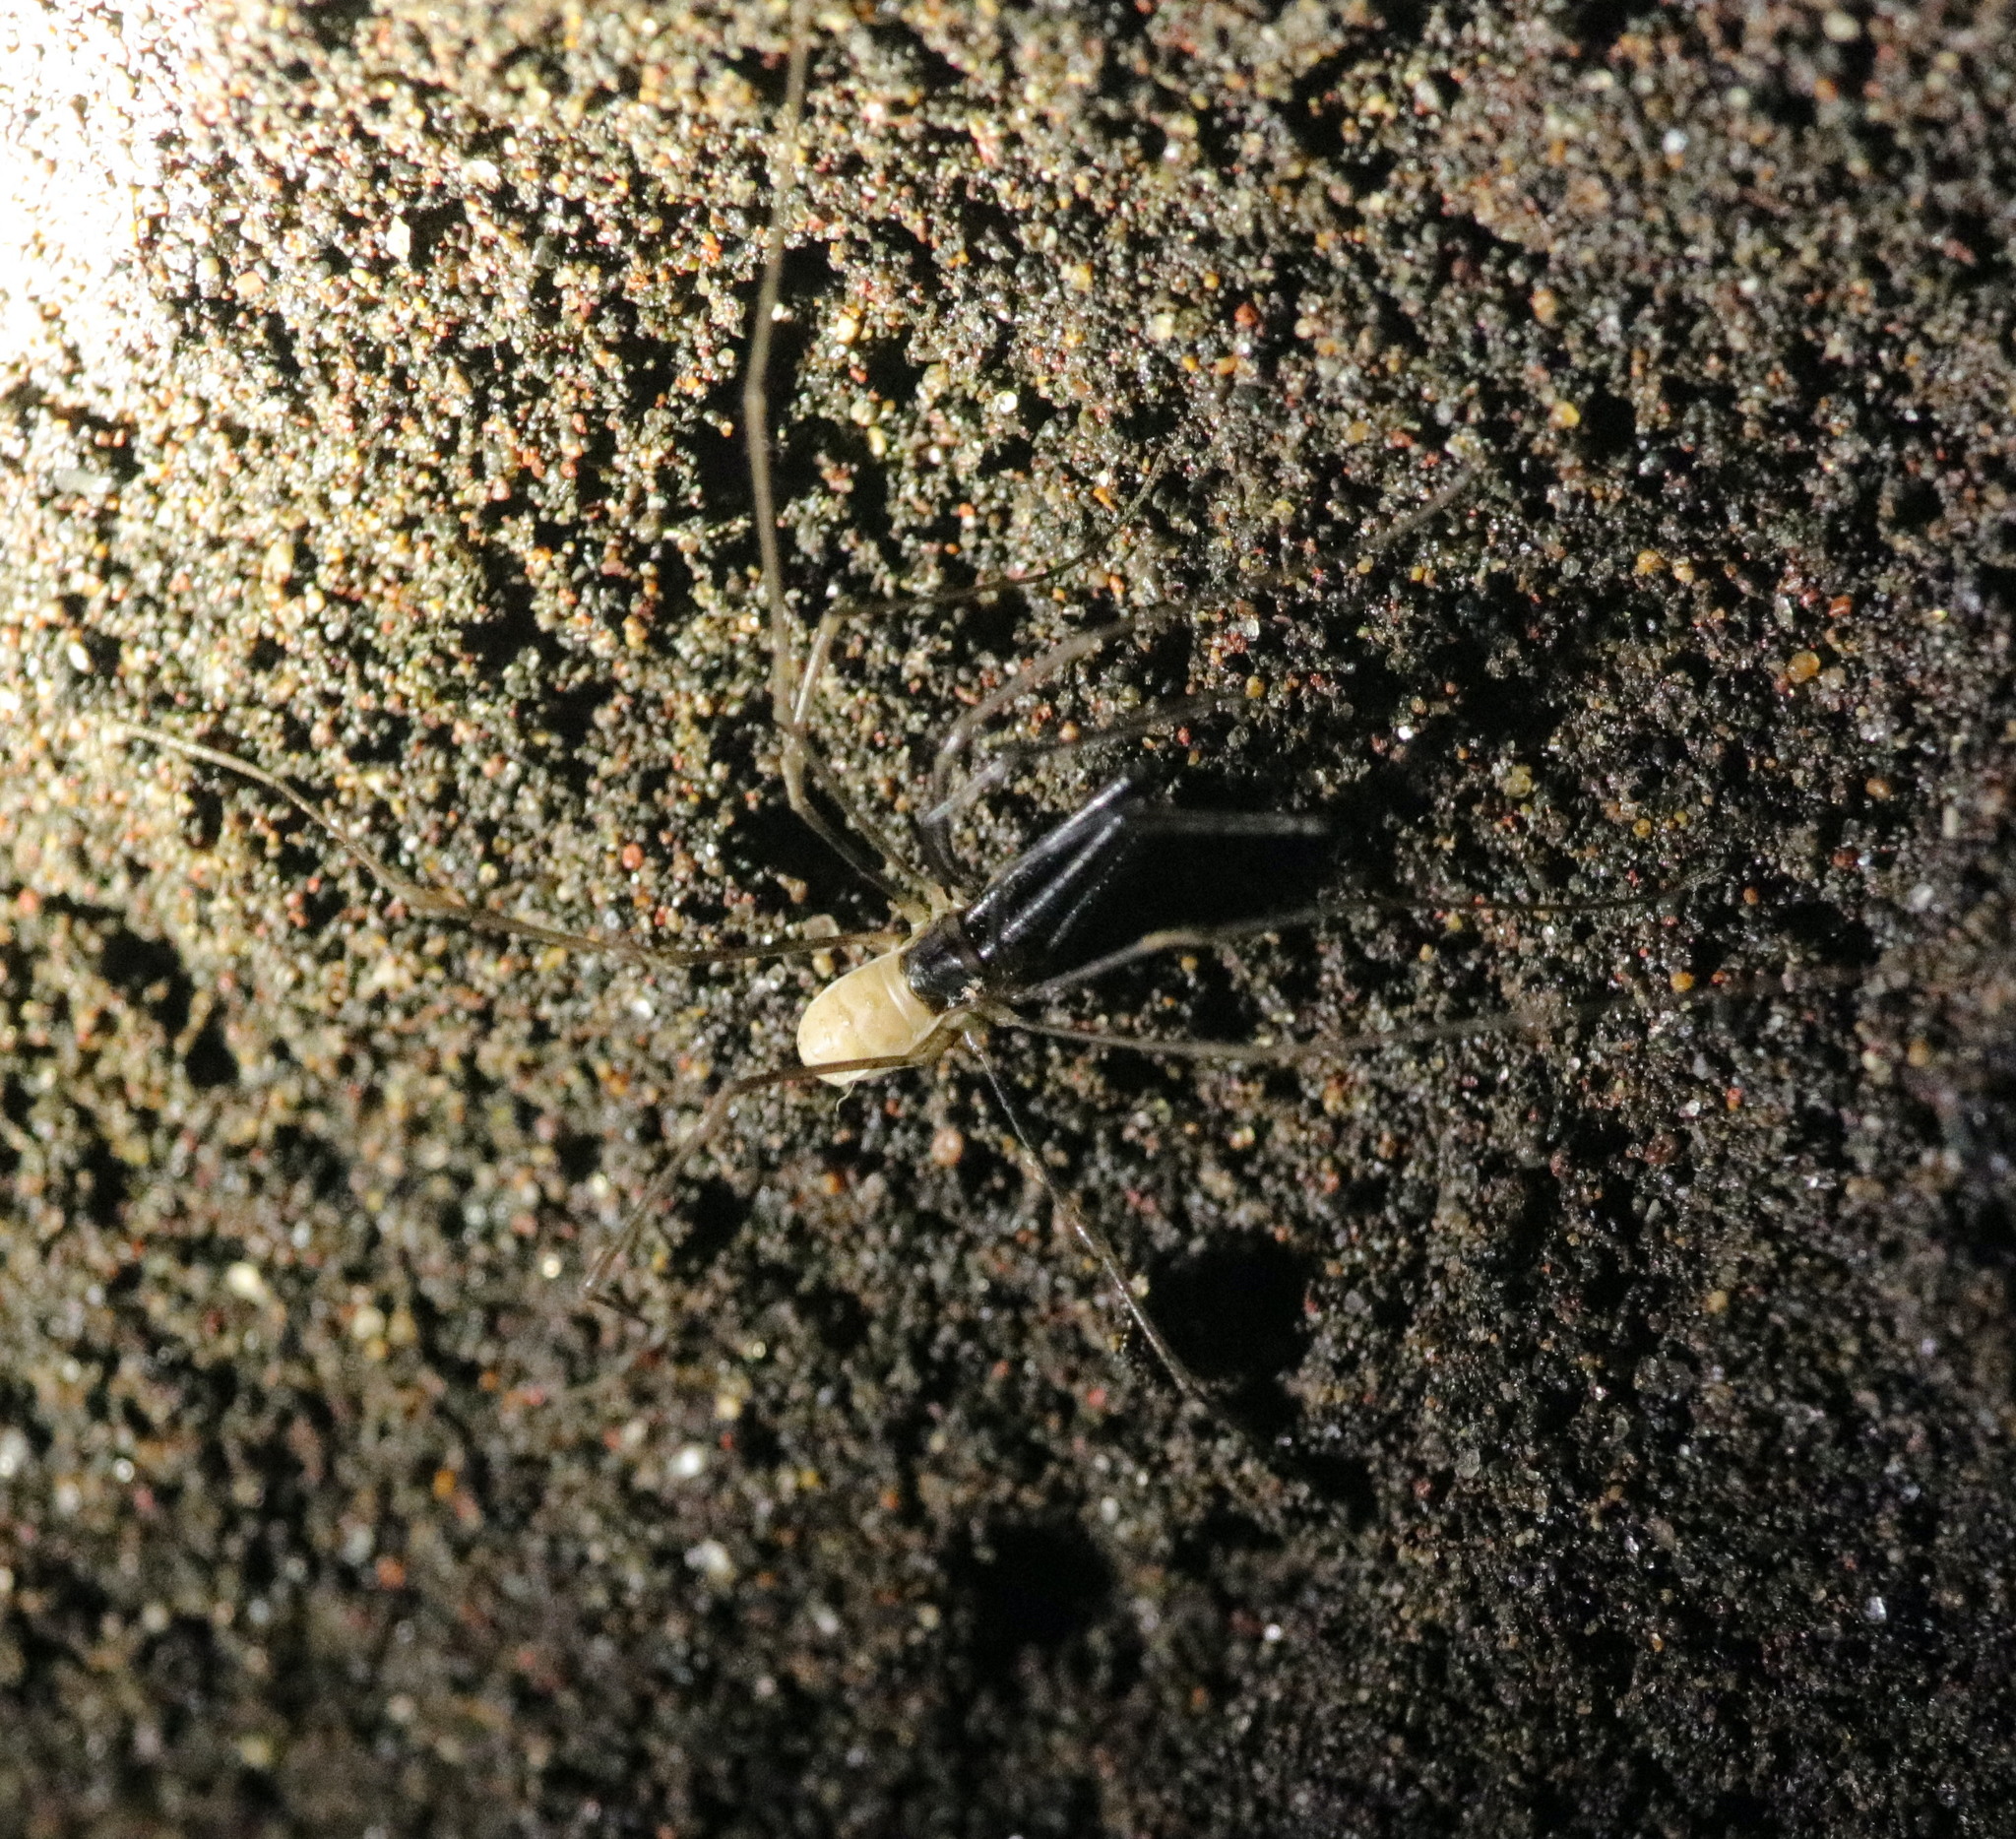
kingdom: Animalia
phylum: Arthropoda
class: Arachnida
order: Opiliones
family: Taracidae
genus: Taracus
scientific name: Taracus marchingtoni
